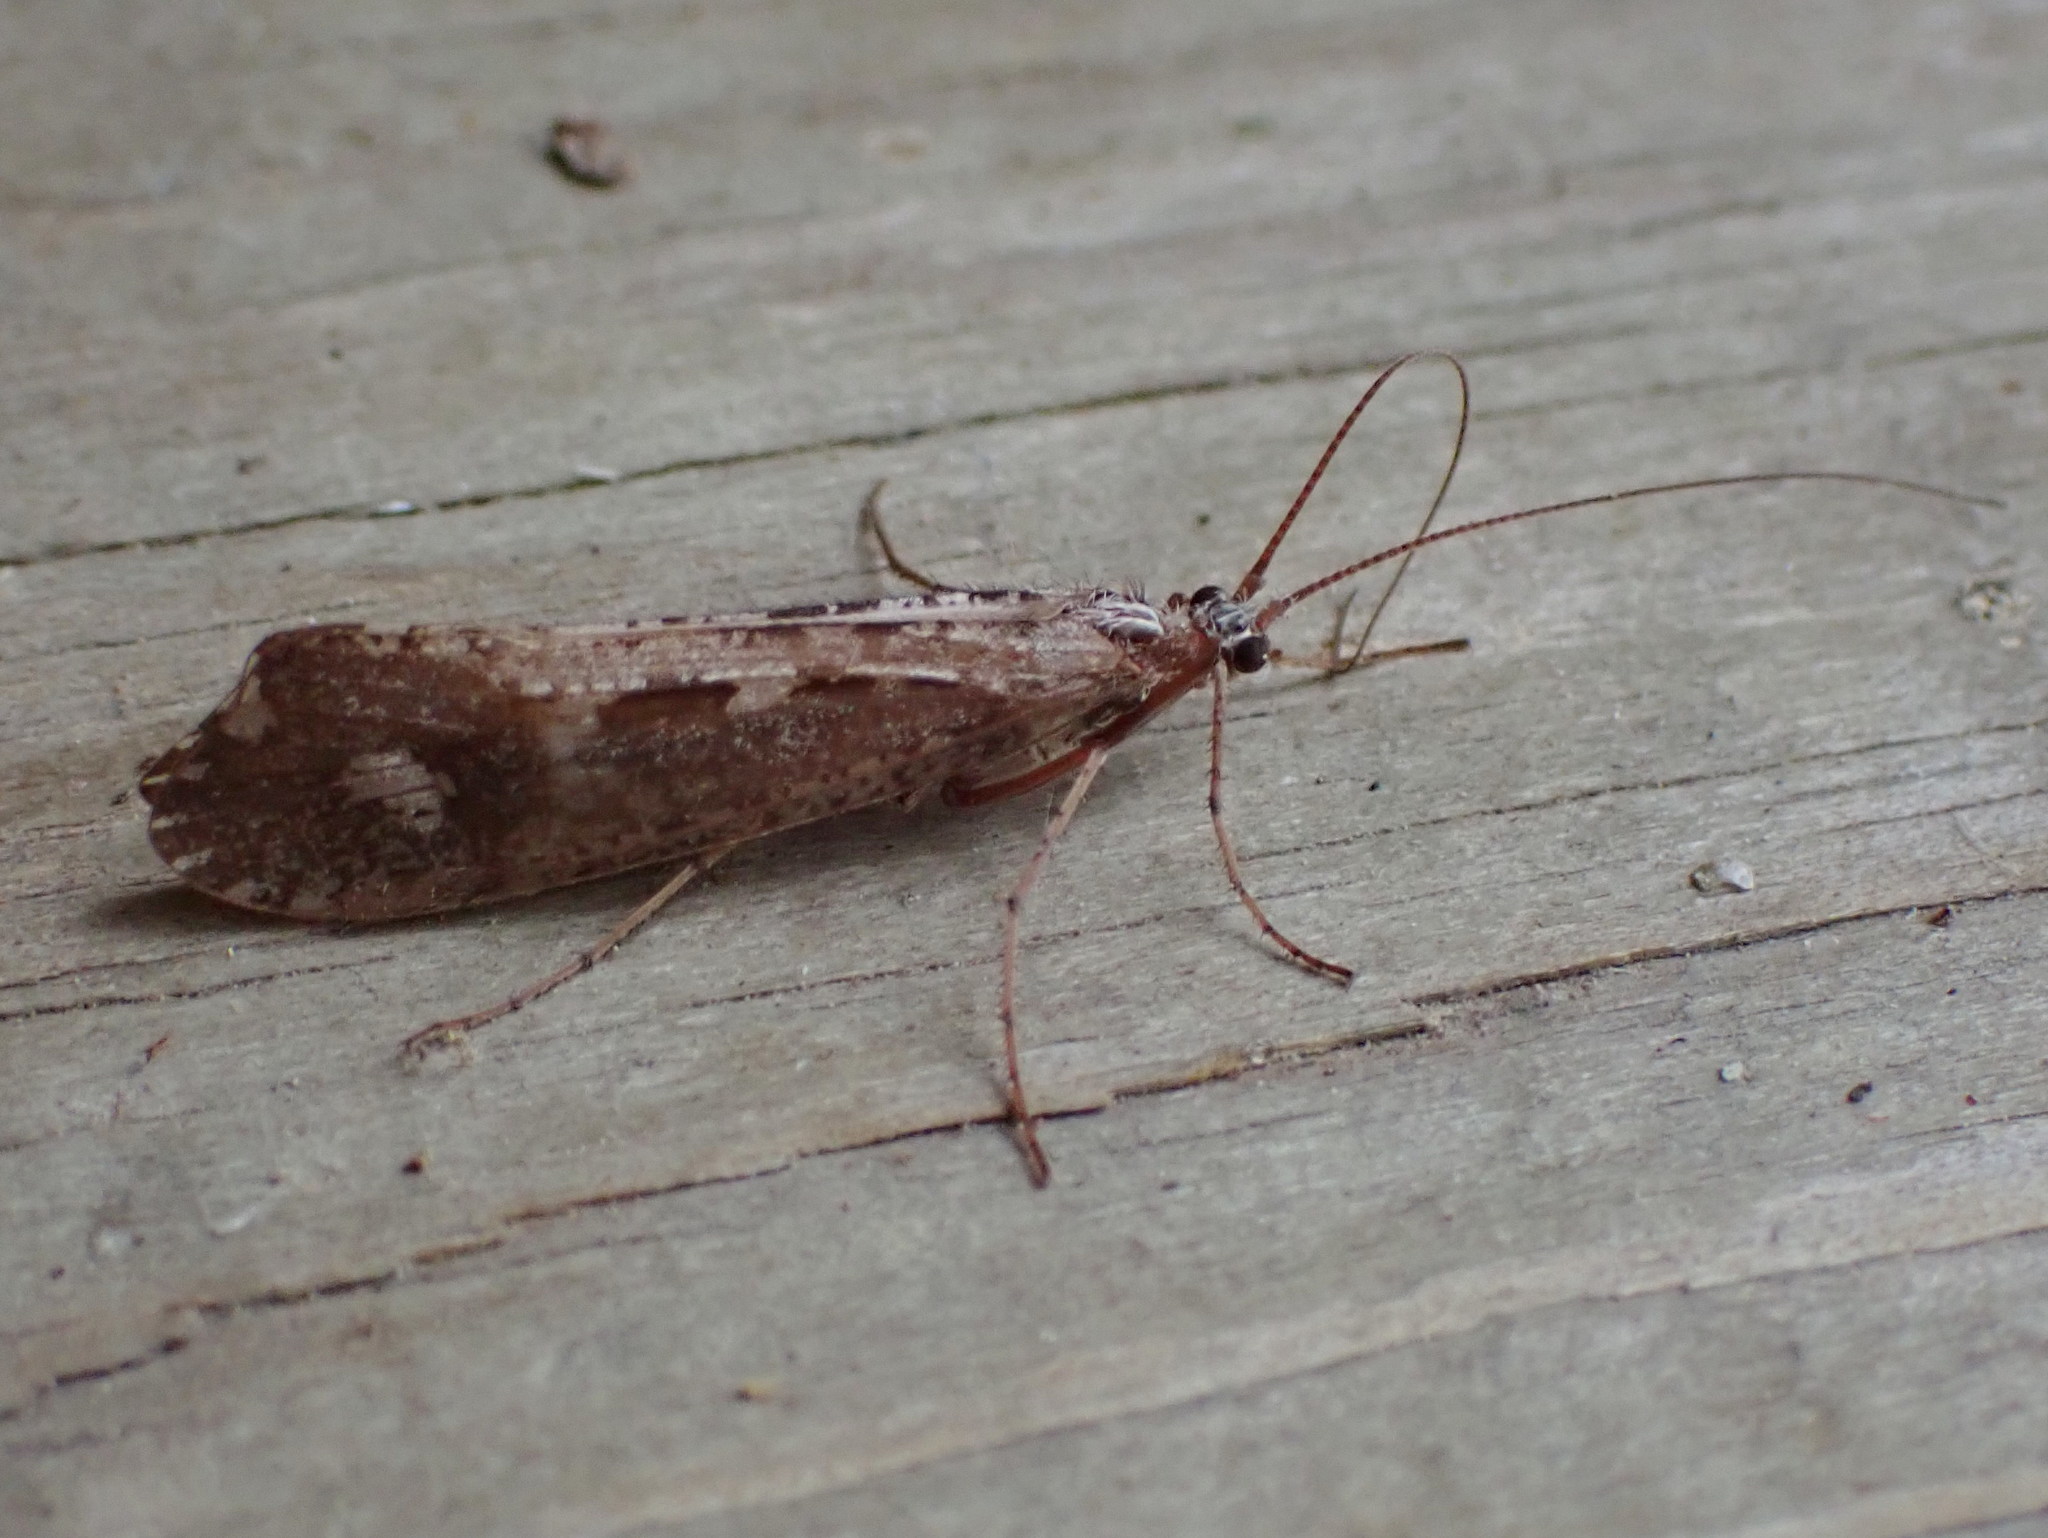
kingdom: Animalia
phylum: Arthropoda
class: Insecta
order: Trichoptera
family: Limnephilidae
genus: Glyphopsyche
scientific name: Glyphopsyche irrorata
